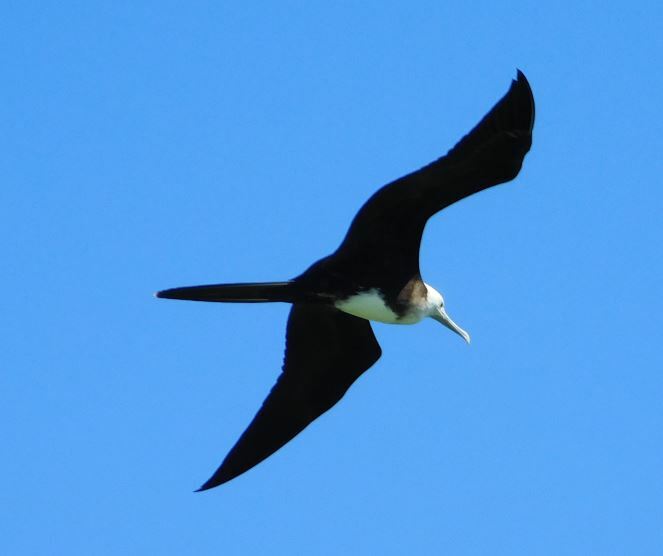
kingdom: Animalia
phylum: Chordata
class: Aves
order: Suliformes
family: Fregatidae
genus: Fregata
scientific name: Fregata magnificens
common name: Magnificent frigatebird
